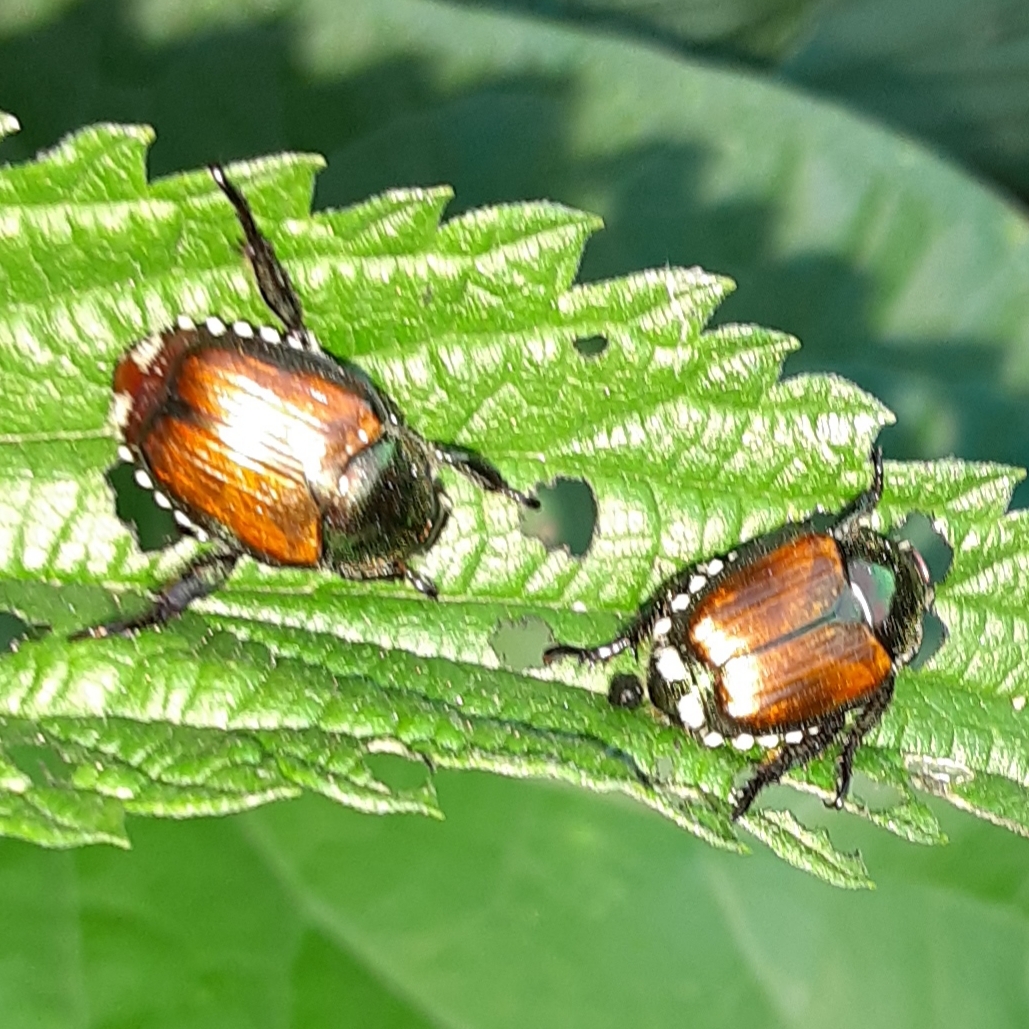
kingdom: Animalia
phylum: Arthropoda
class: Insecta
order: Coleoptera
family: Scarabaeidae
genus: Popillia
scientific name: Popillia japonica
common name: Japanese beetle
